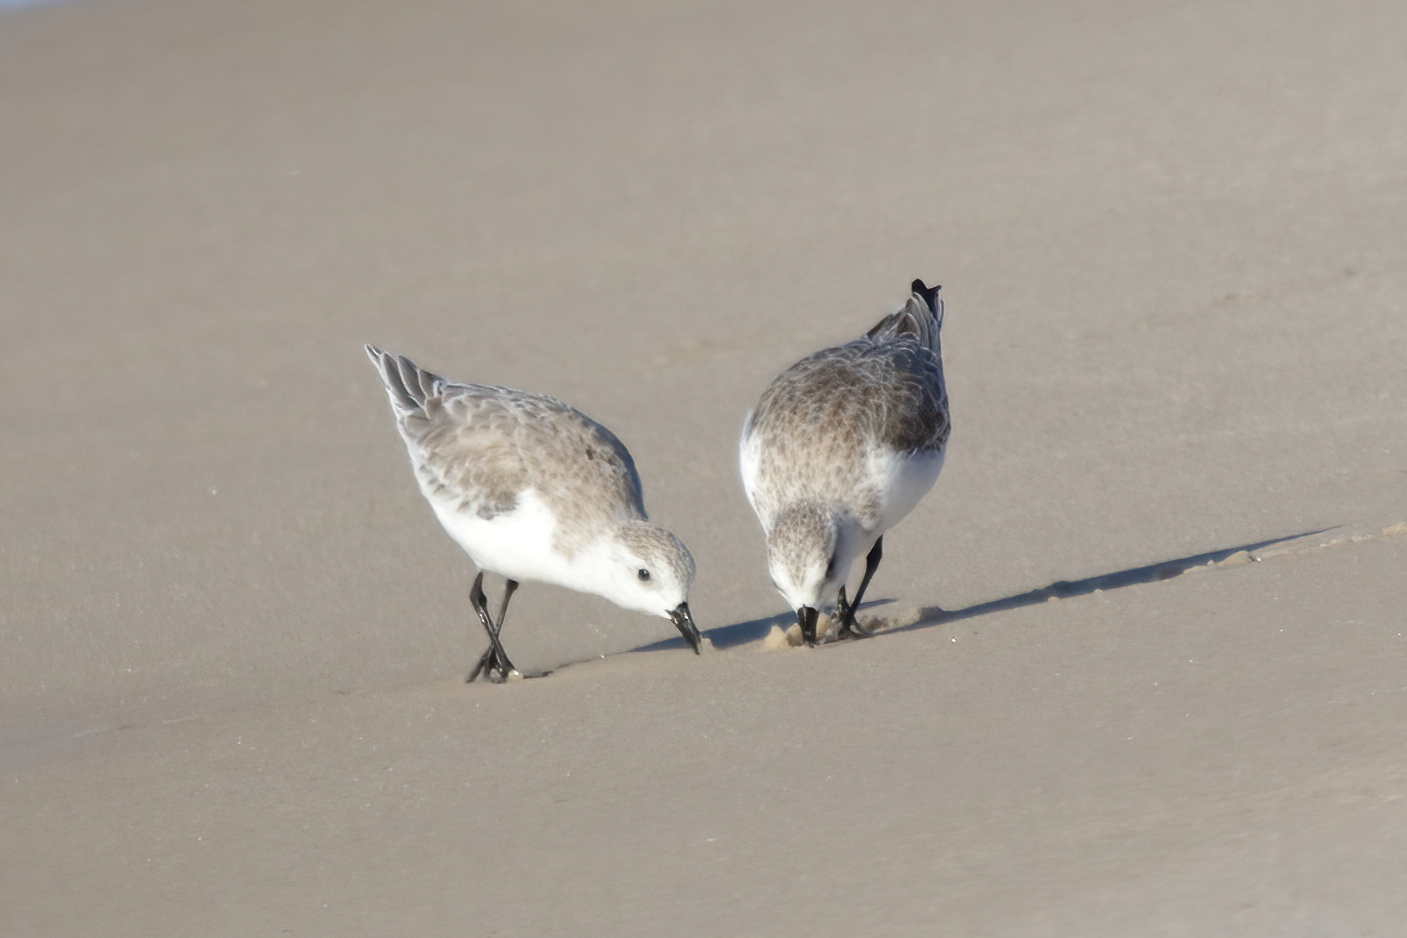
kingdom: Animalia
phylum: Chordata
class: Aves
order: Charadriiformes
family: Scolopacidae
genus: Calidris
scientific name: Calidris alba
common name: Sanderling
